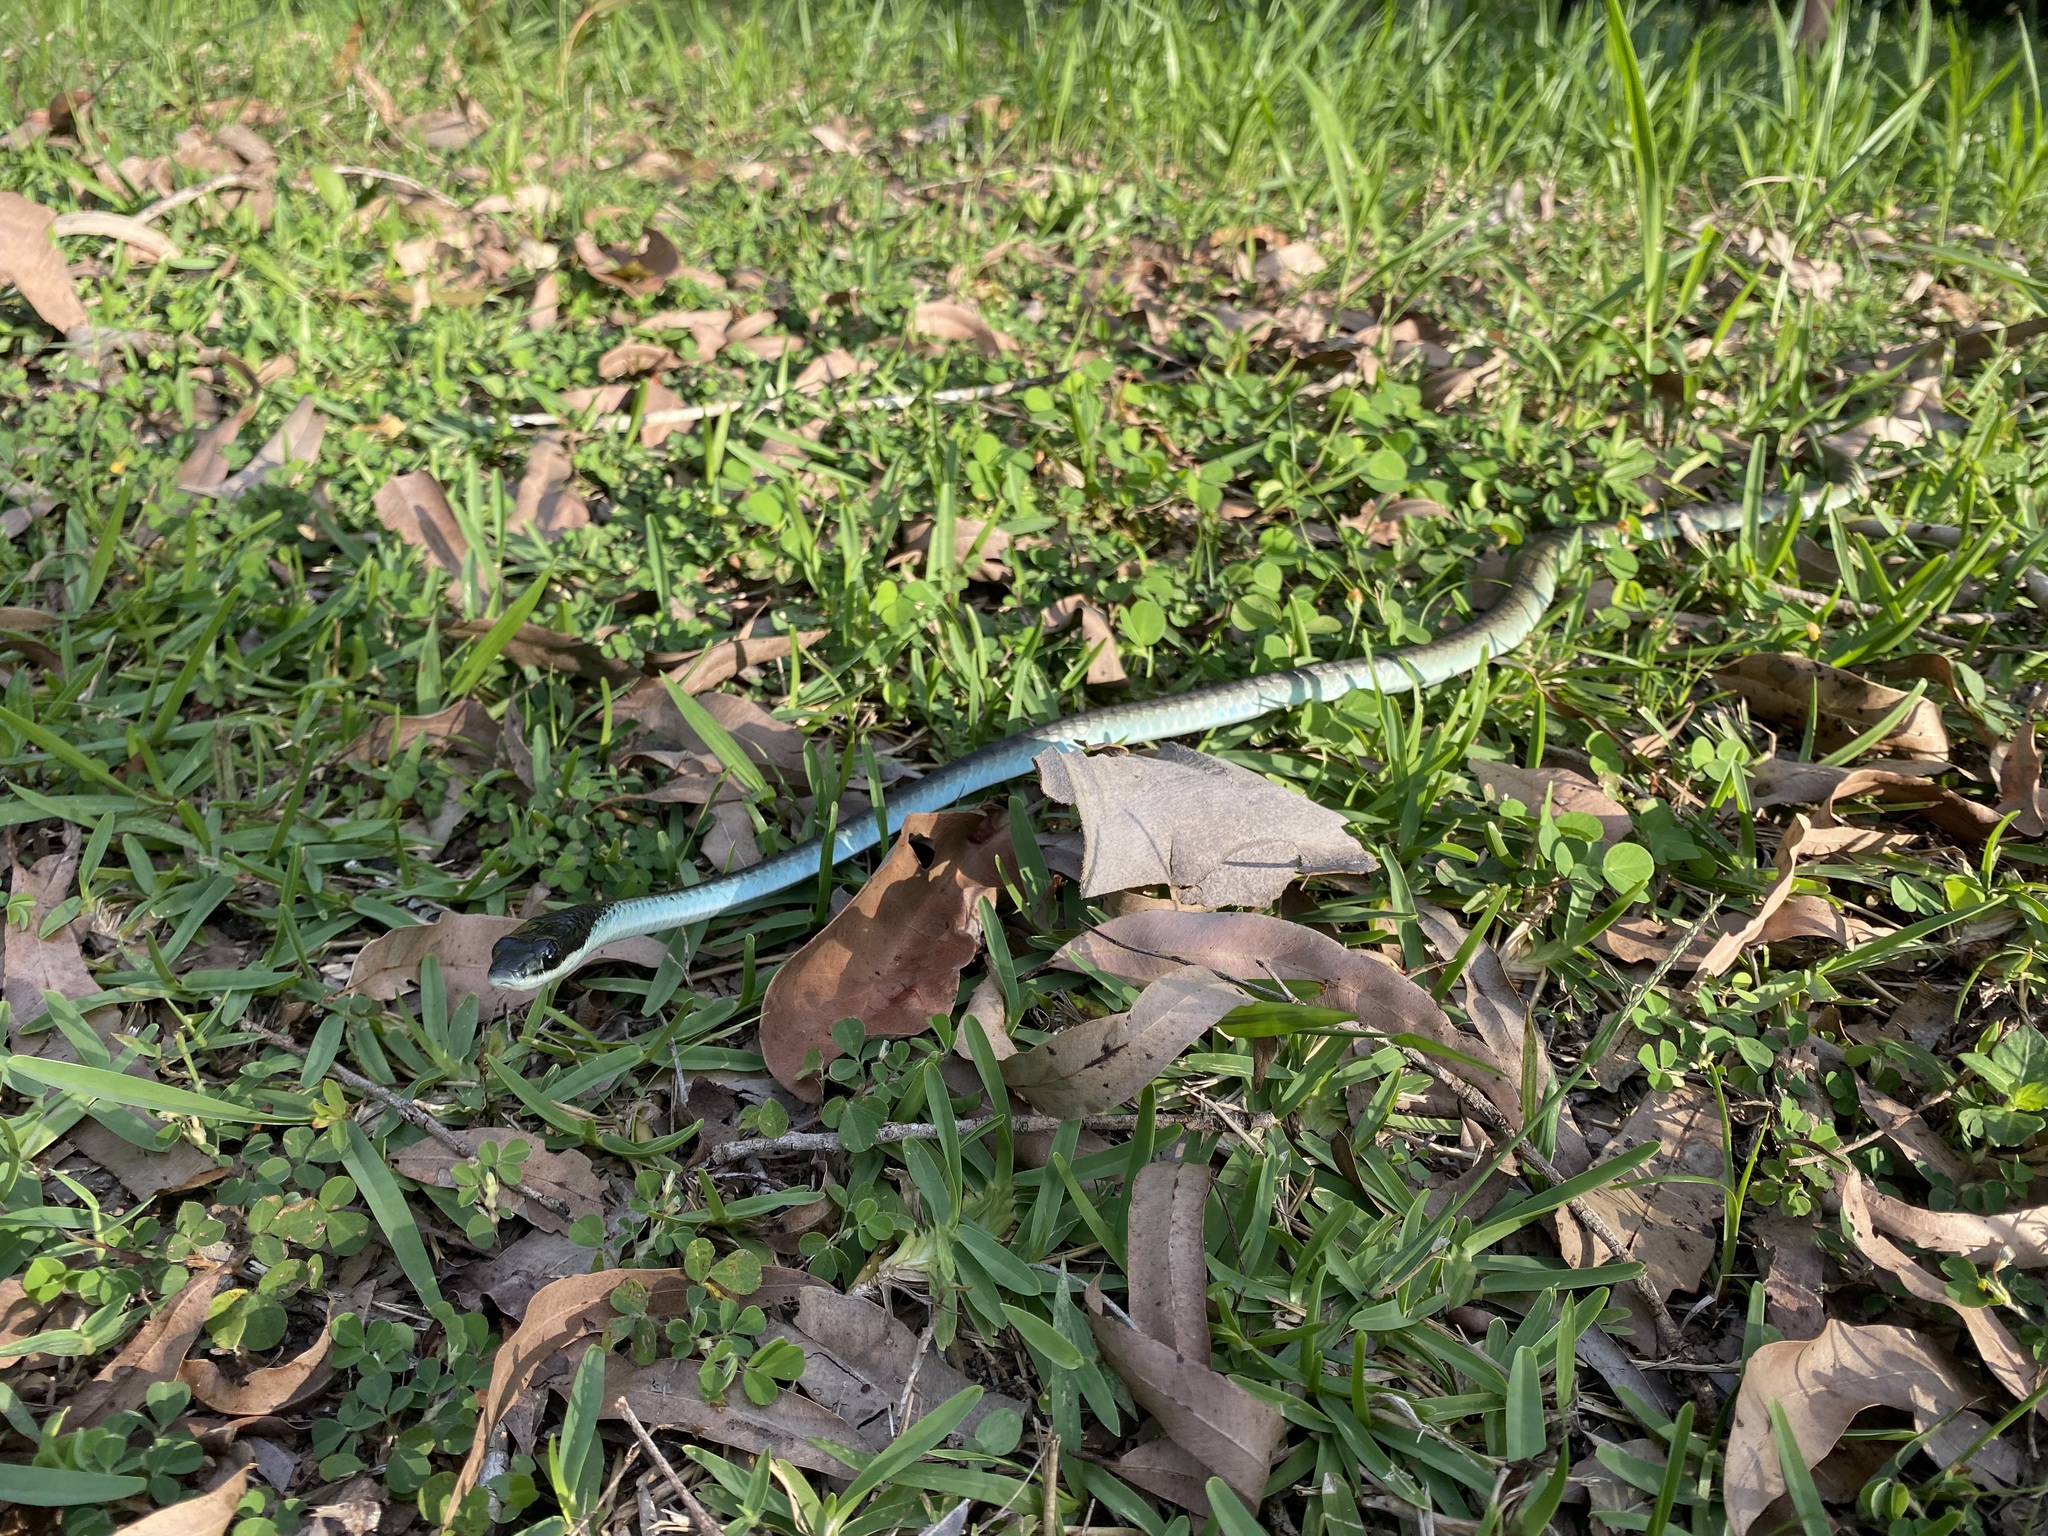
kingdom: Animalia
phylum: Chordata
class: Squamata
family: Colubridae
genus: Dendrelaphis
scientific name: Dendrelaphis punctulatus
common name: Common tree snake
